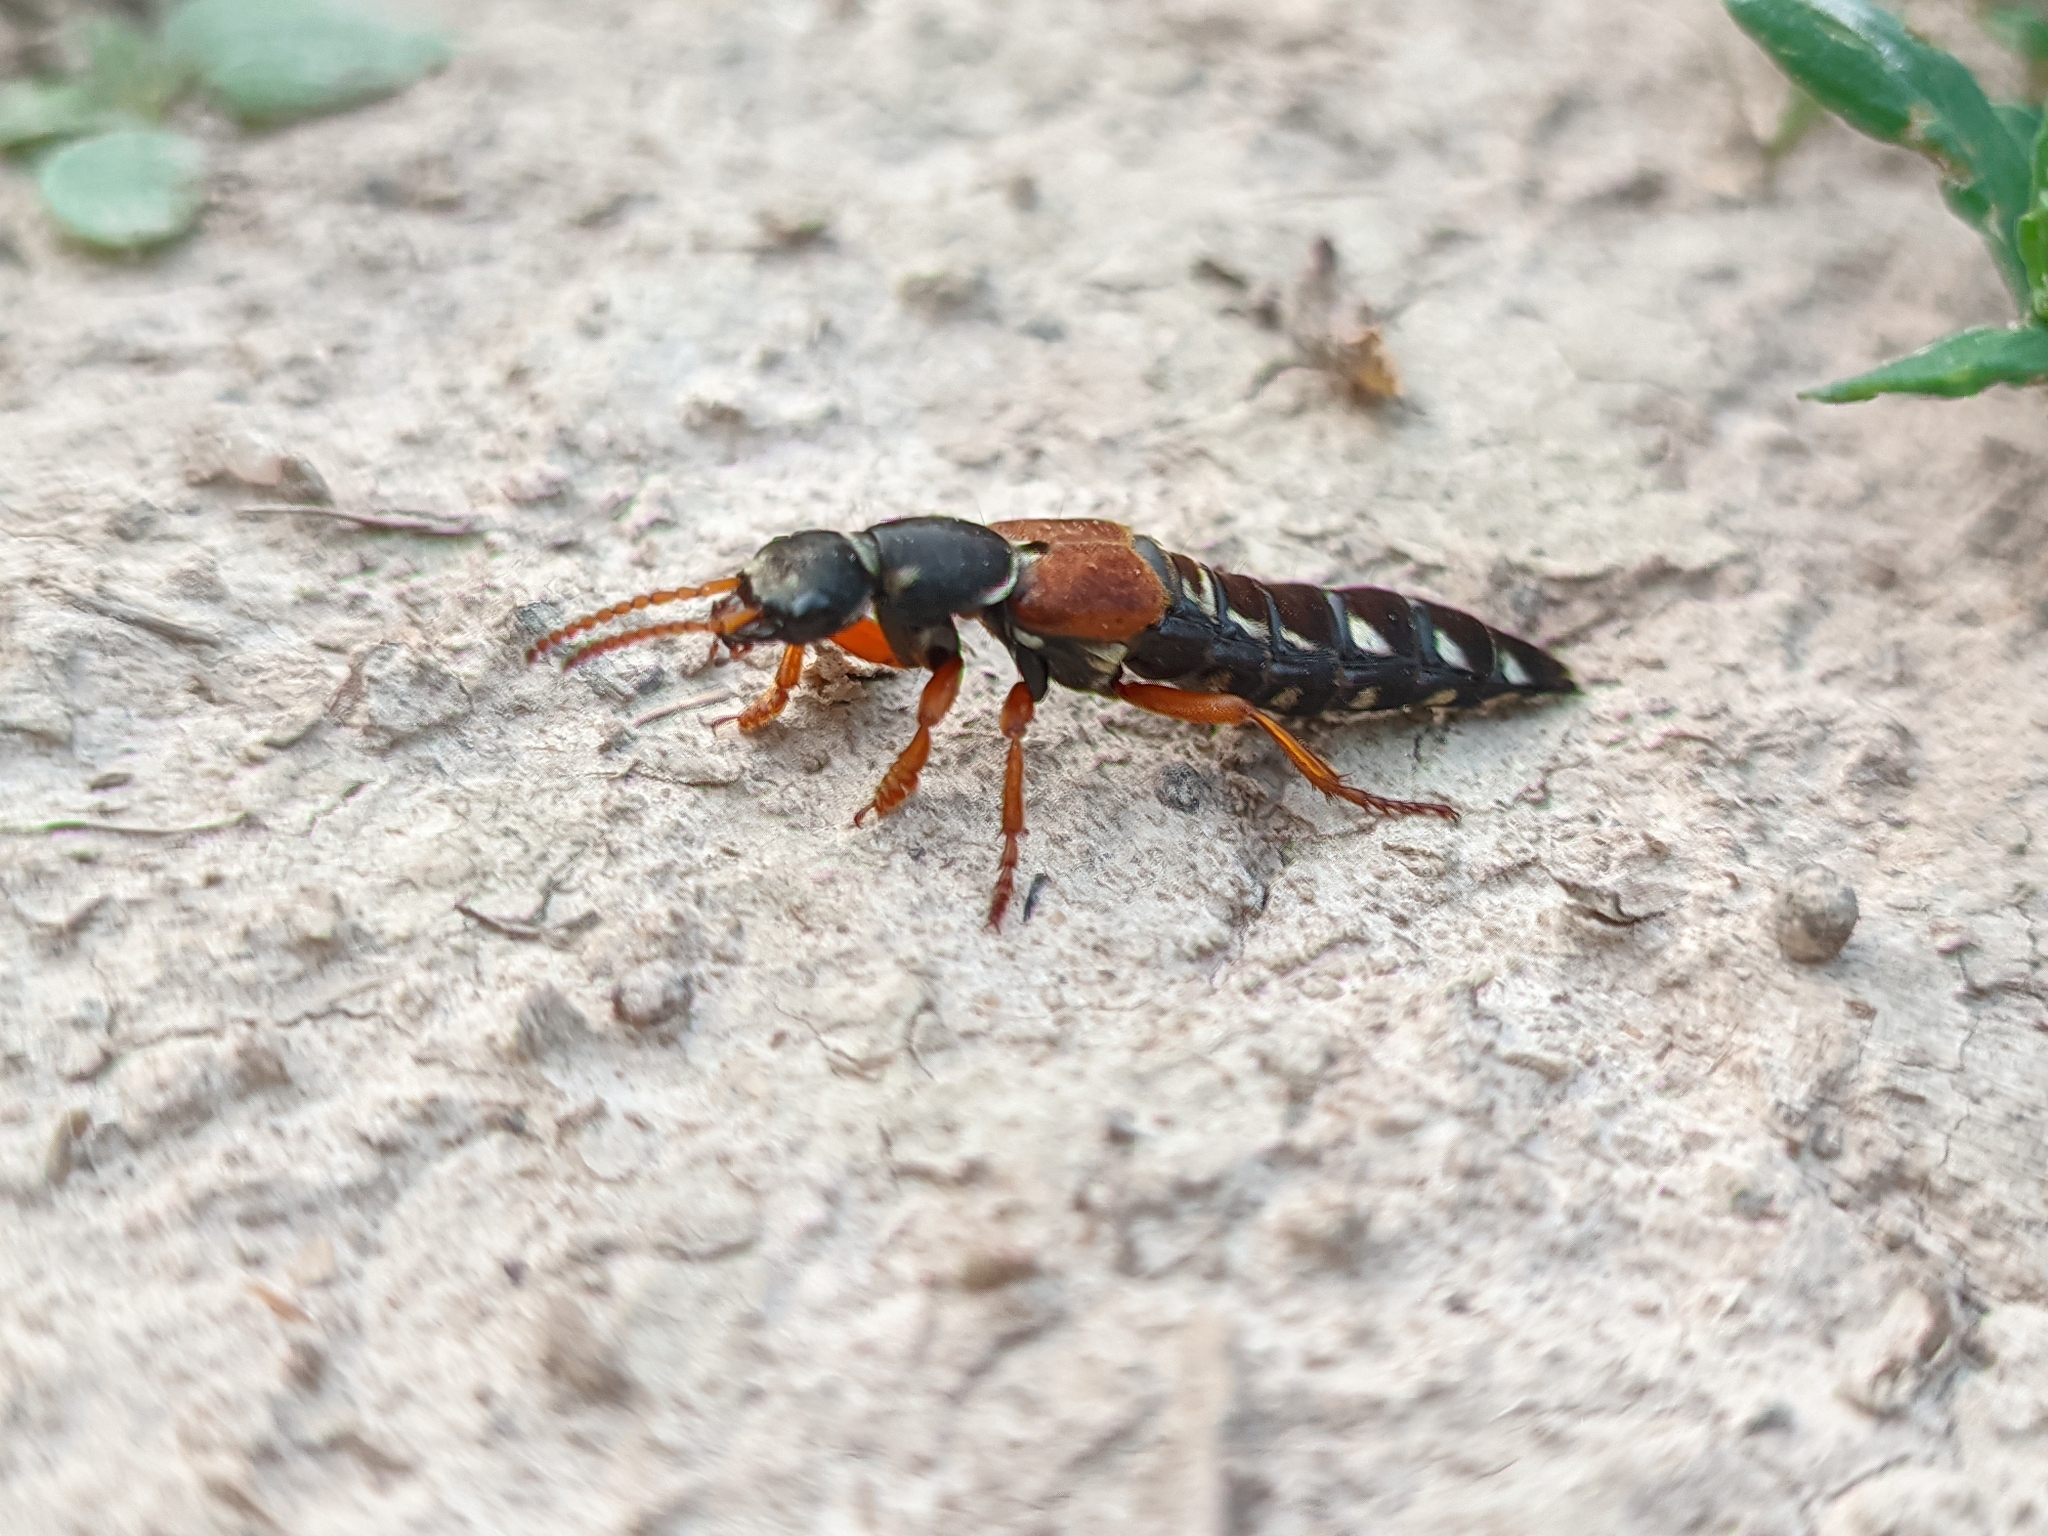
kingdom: Animalia
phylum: Arthropoda
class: Insecta
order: Coleoptera
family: Staphylinidae
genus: Staphylinus
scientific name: Staphylinus caesareus
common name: Staph beetle
